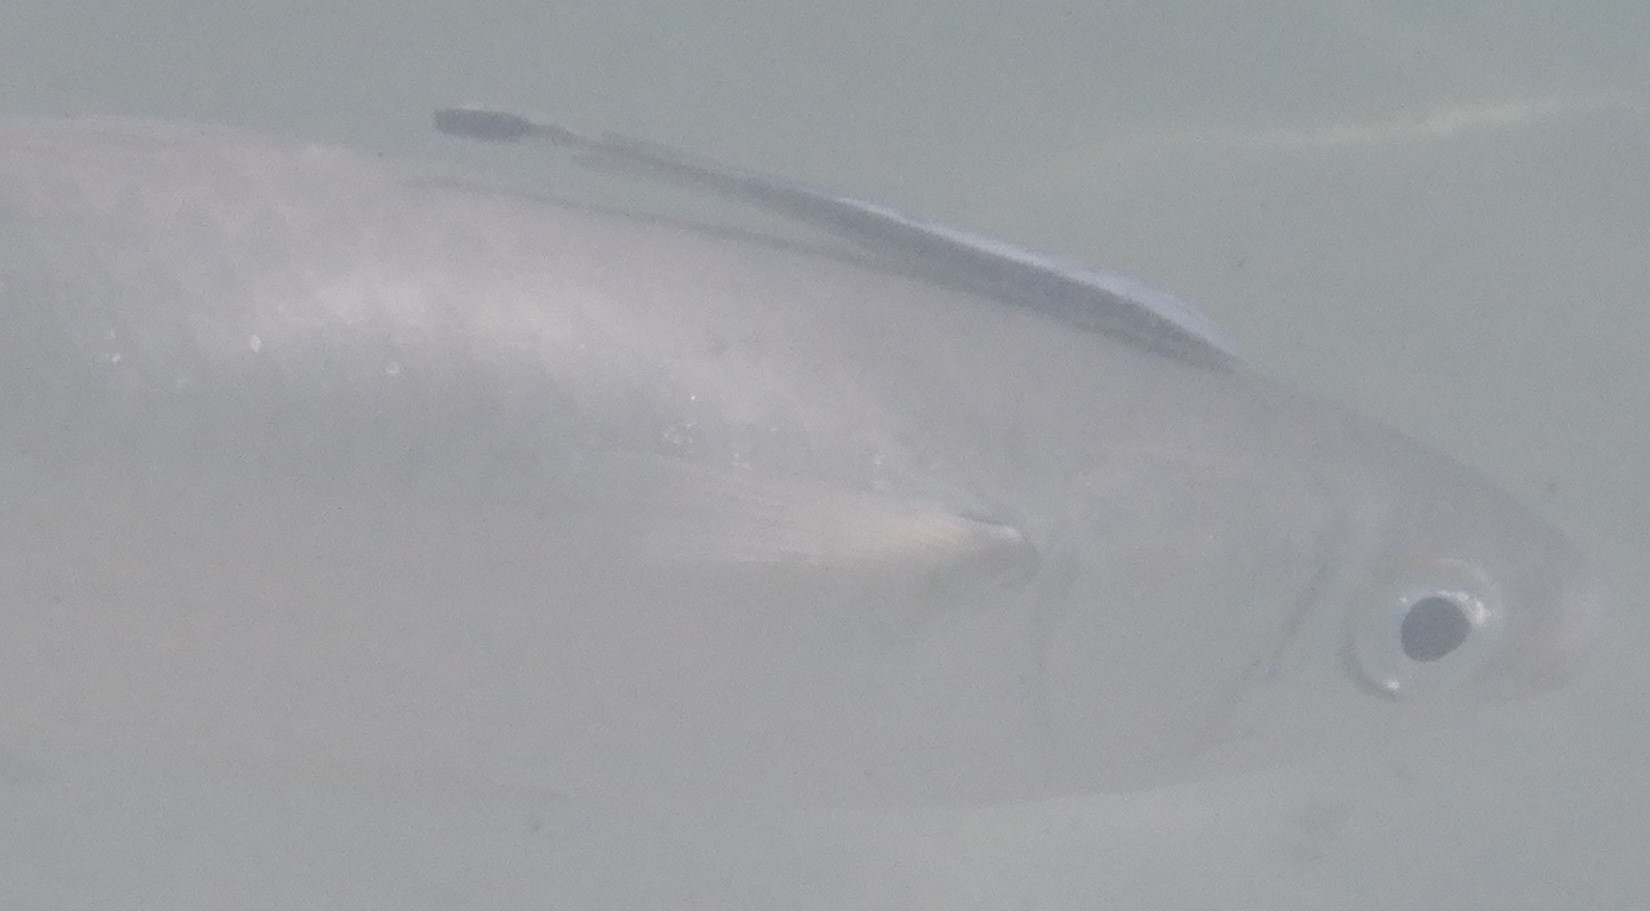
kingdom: Animalia
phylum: Chordata
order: Perciformes
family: Echeneidae
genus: Echeneis
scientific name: Echeneis naucrates
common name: Sharksucker
